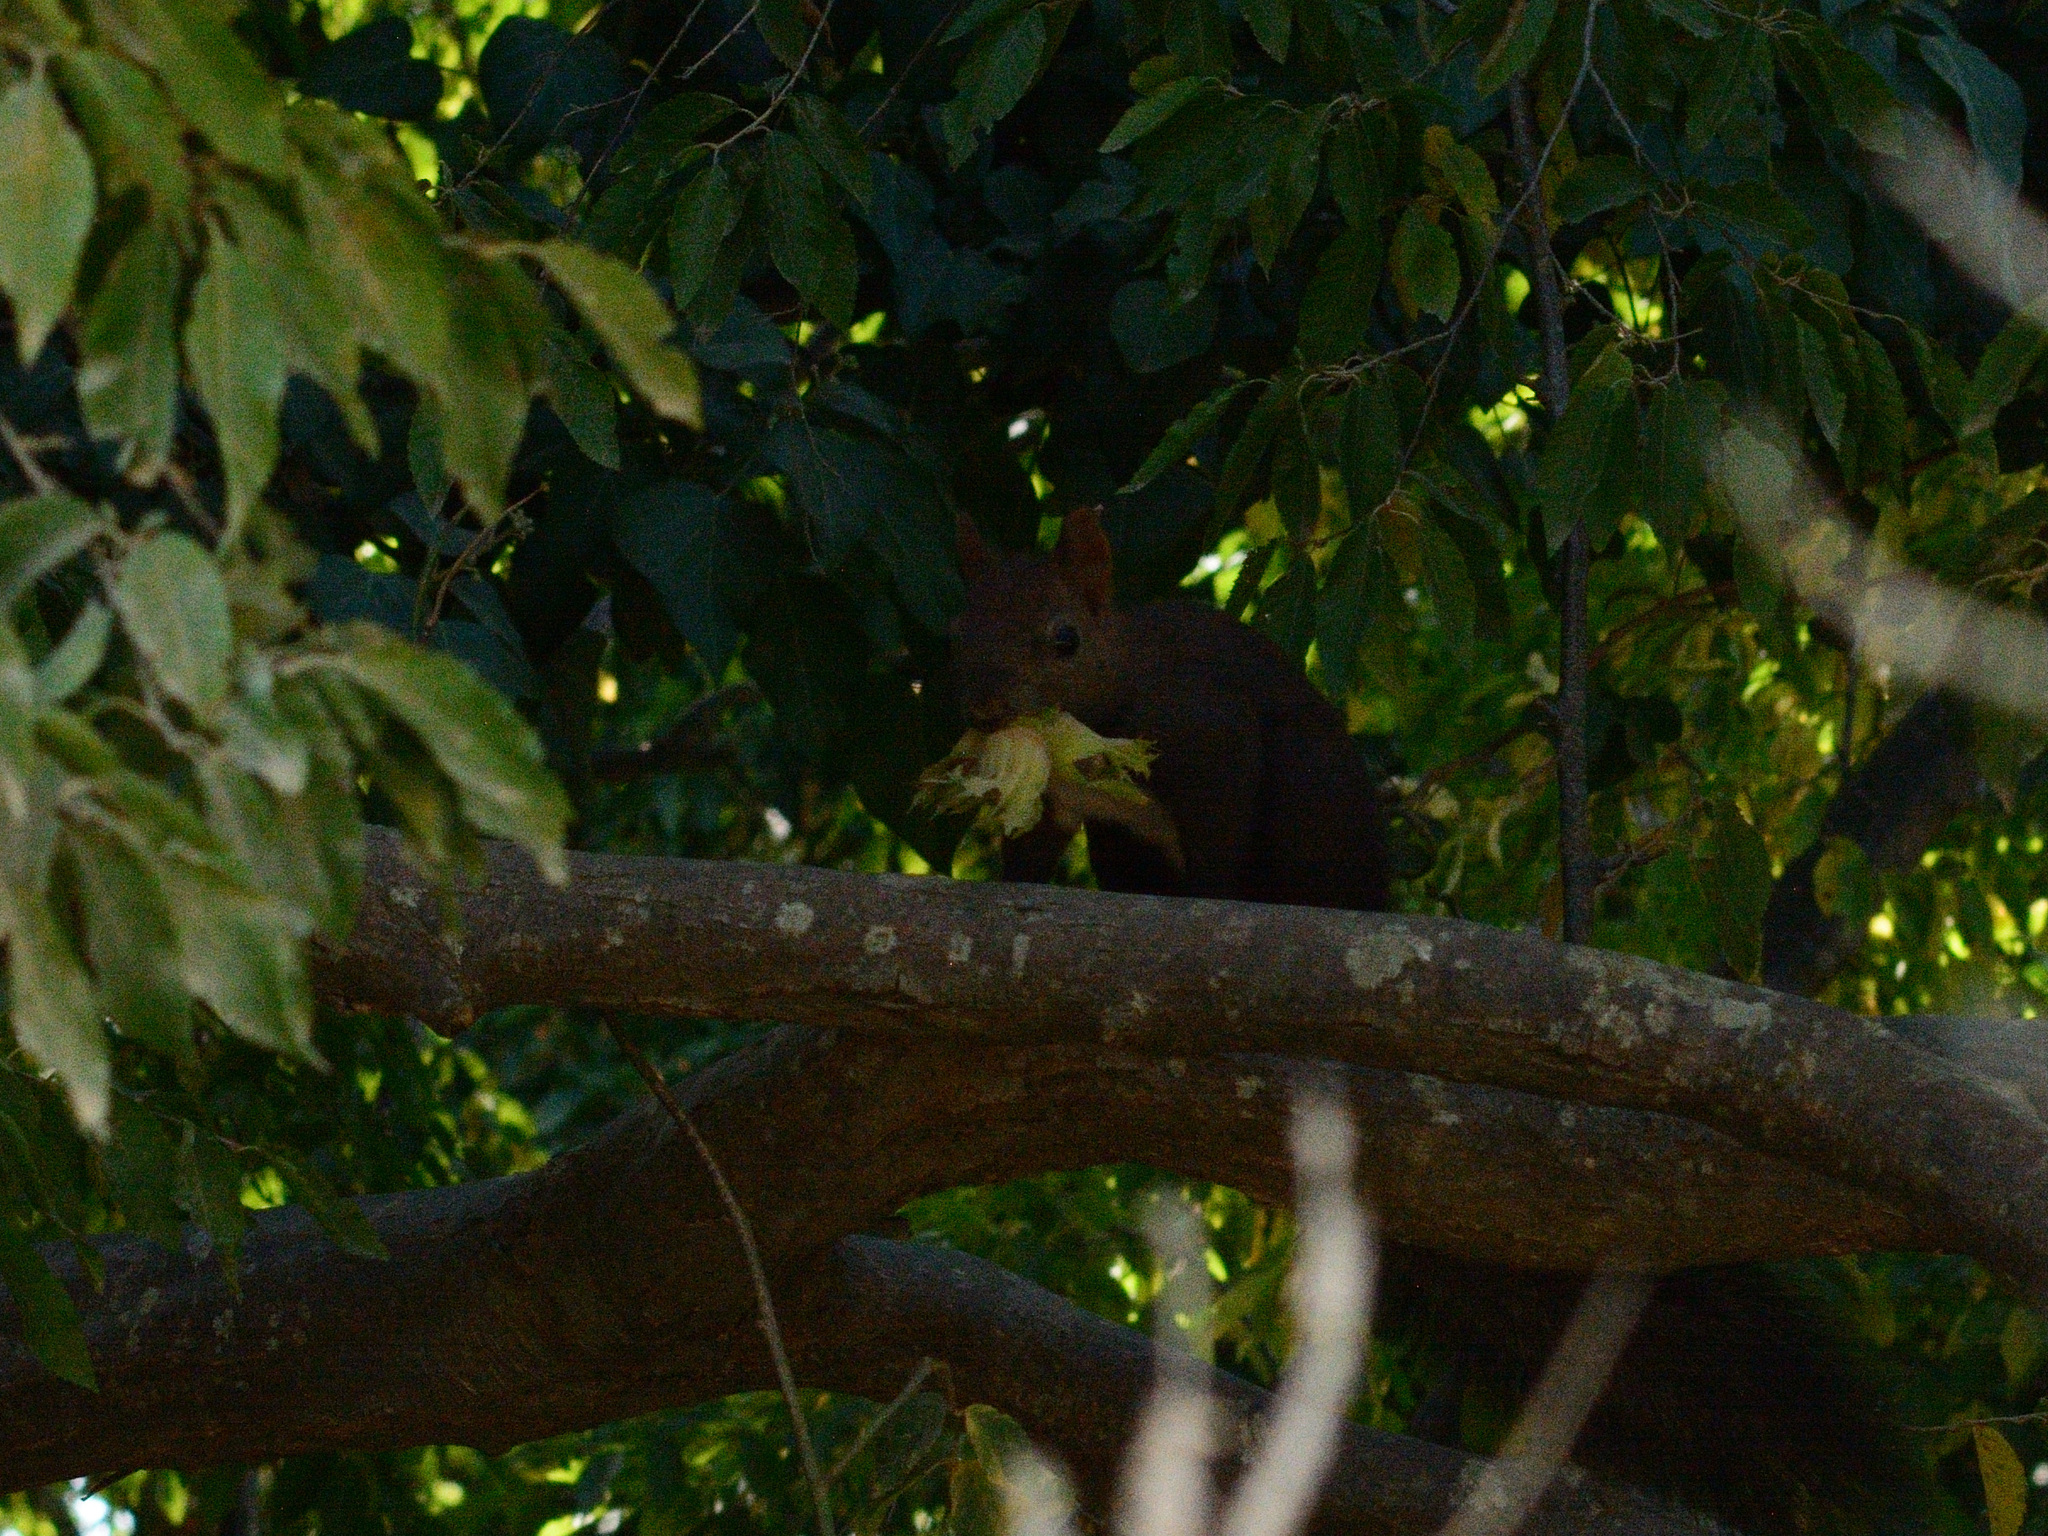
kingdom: Animalia
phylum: Chordata
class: Mammalia
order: Rodentia
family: Sciuridae
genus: Sciurus
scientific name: Sciurus vulgaris
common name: Eurasian red squirrel
